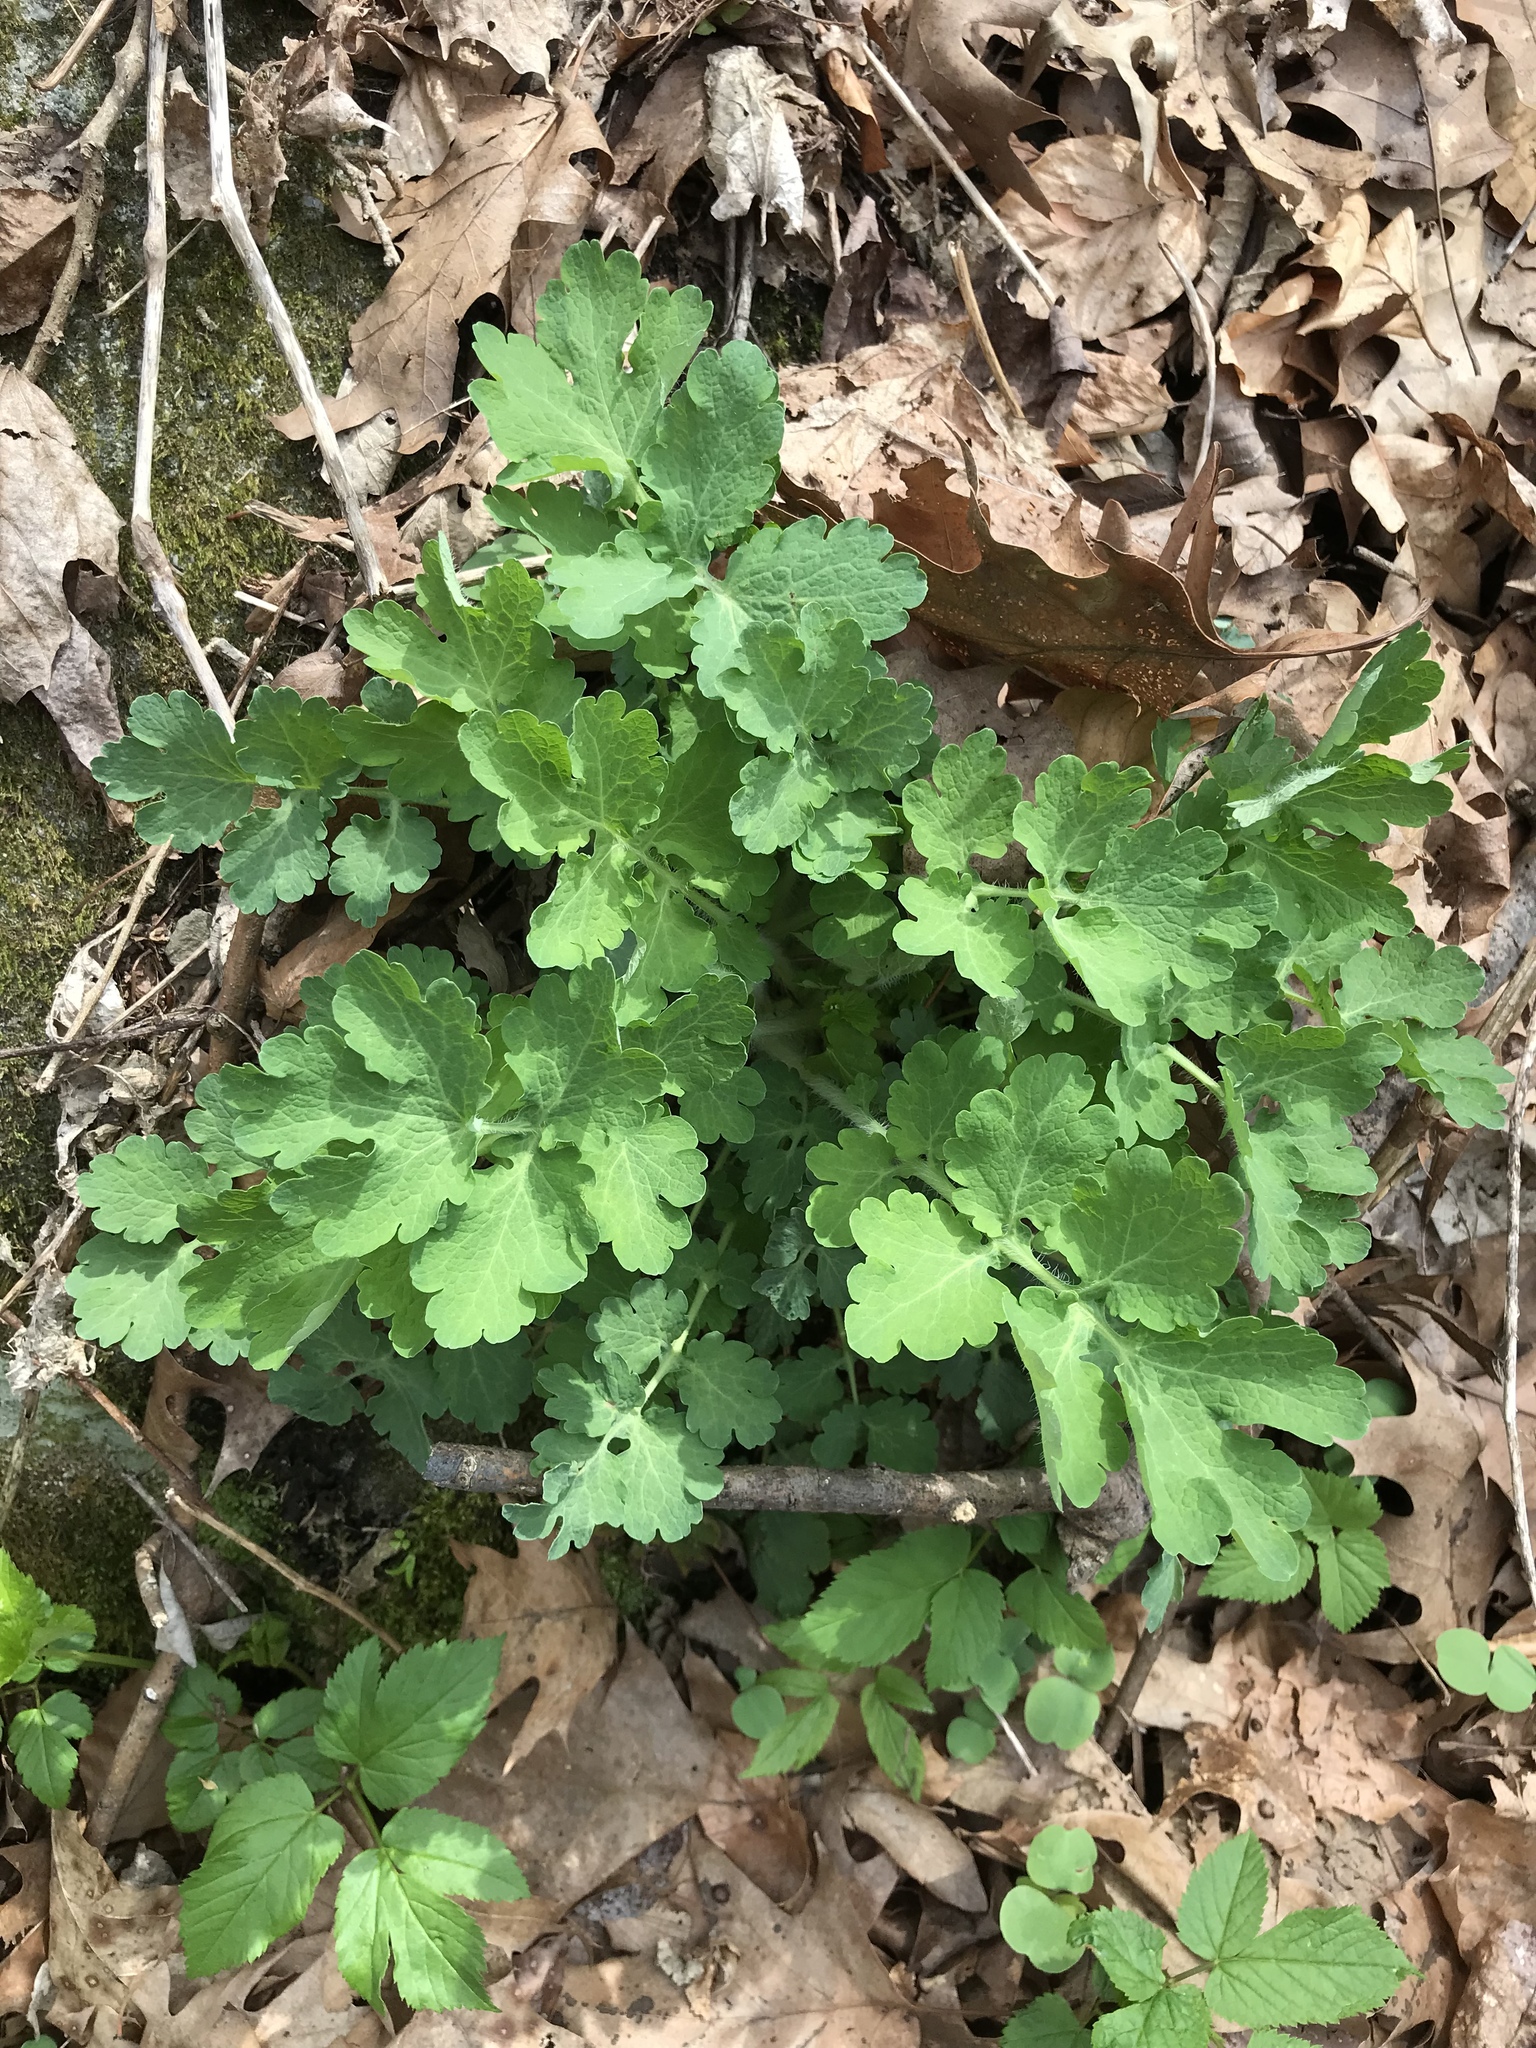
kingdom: Plantae
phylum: Tracheophyta
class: Magnoliopsida
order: Ranunculales
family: Papaveraceae
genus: Chelidonium
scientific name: Chelidonium majus
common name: Greater celandine
